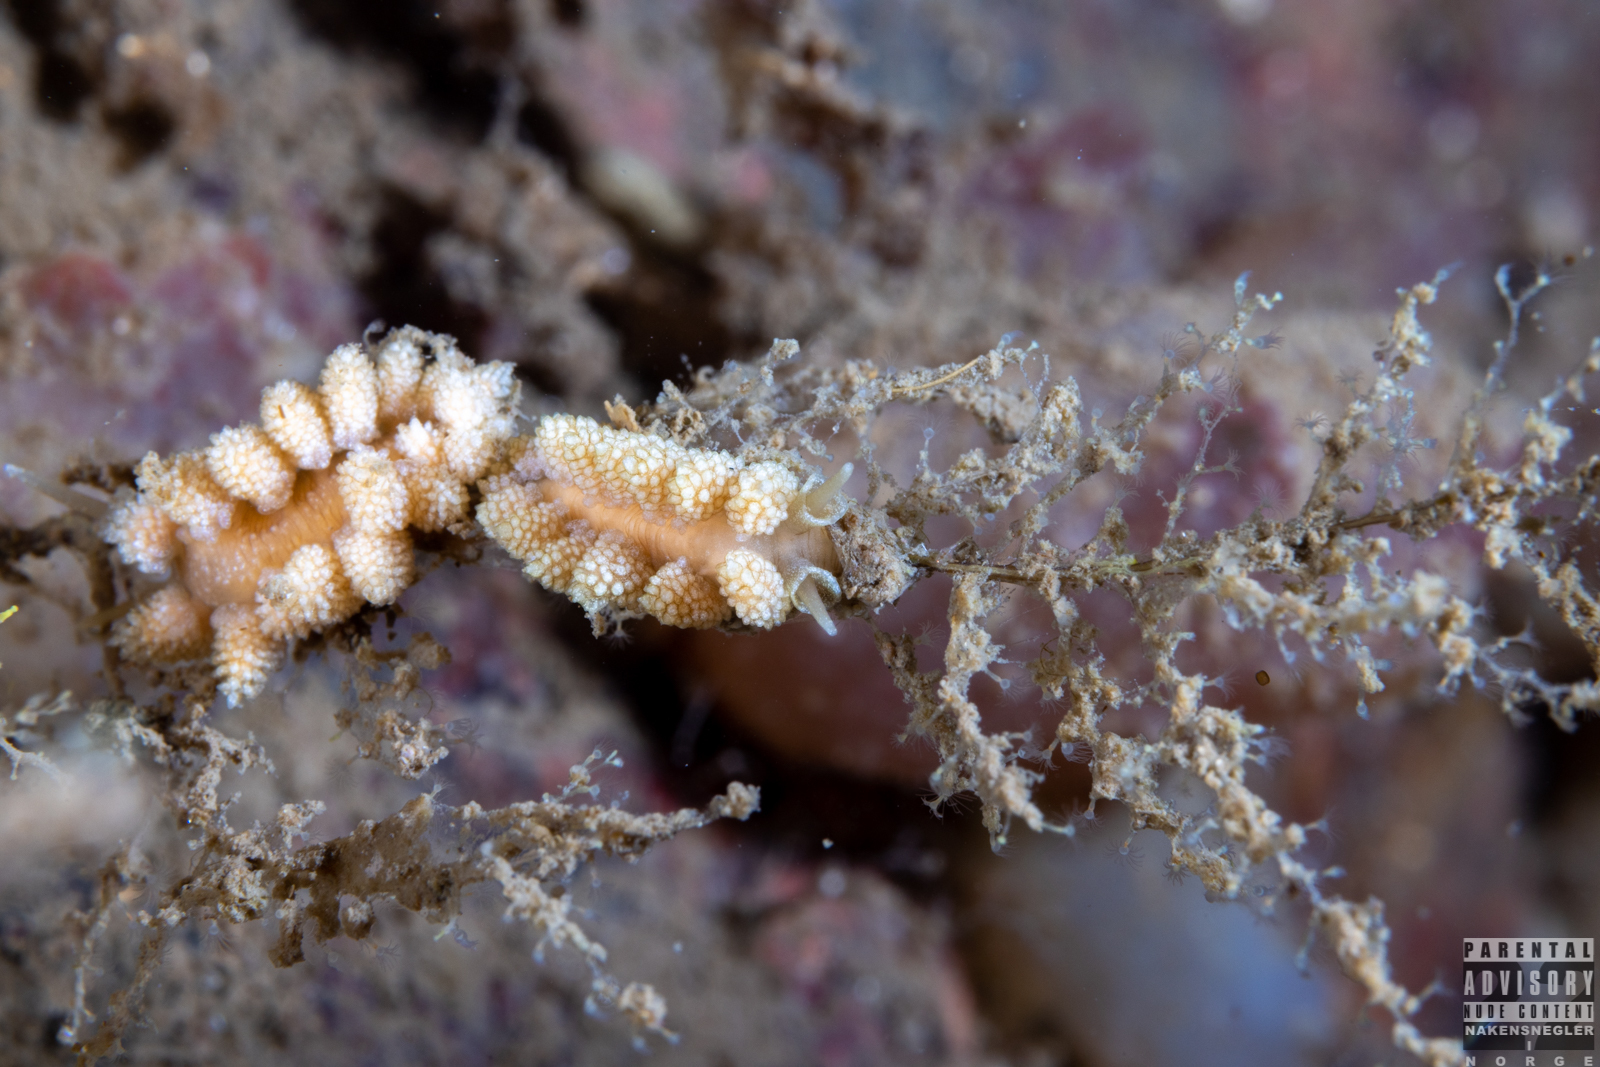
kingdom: Animalia
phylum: Mollusca
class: Gastropoda
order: Nudibranchia
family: Dotidae
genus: Doto
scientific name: Doto fragilis
